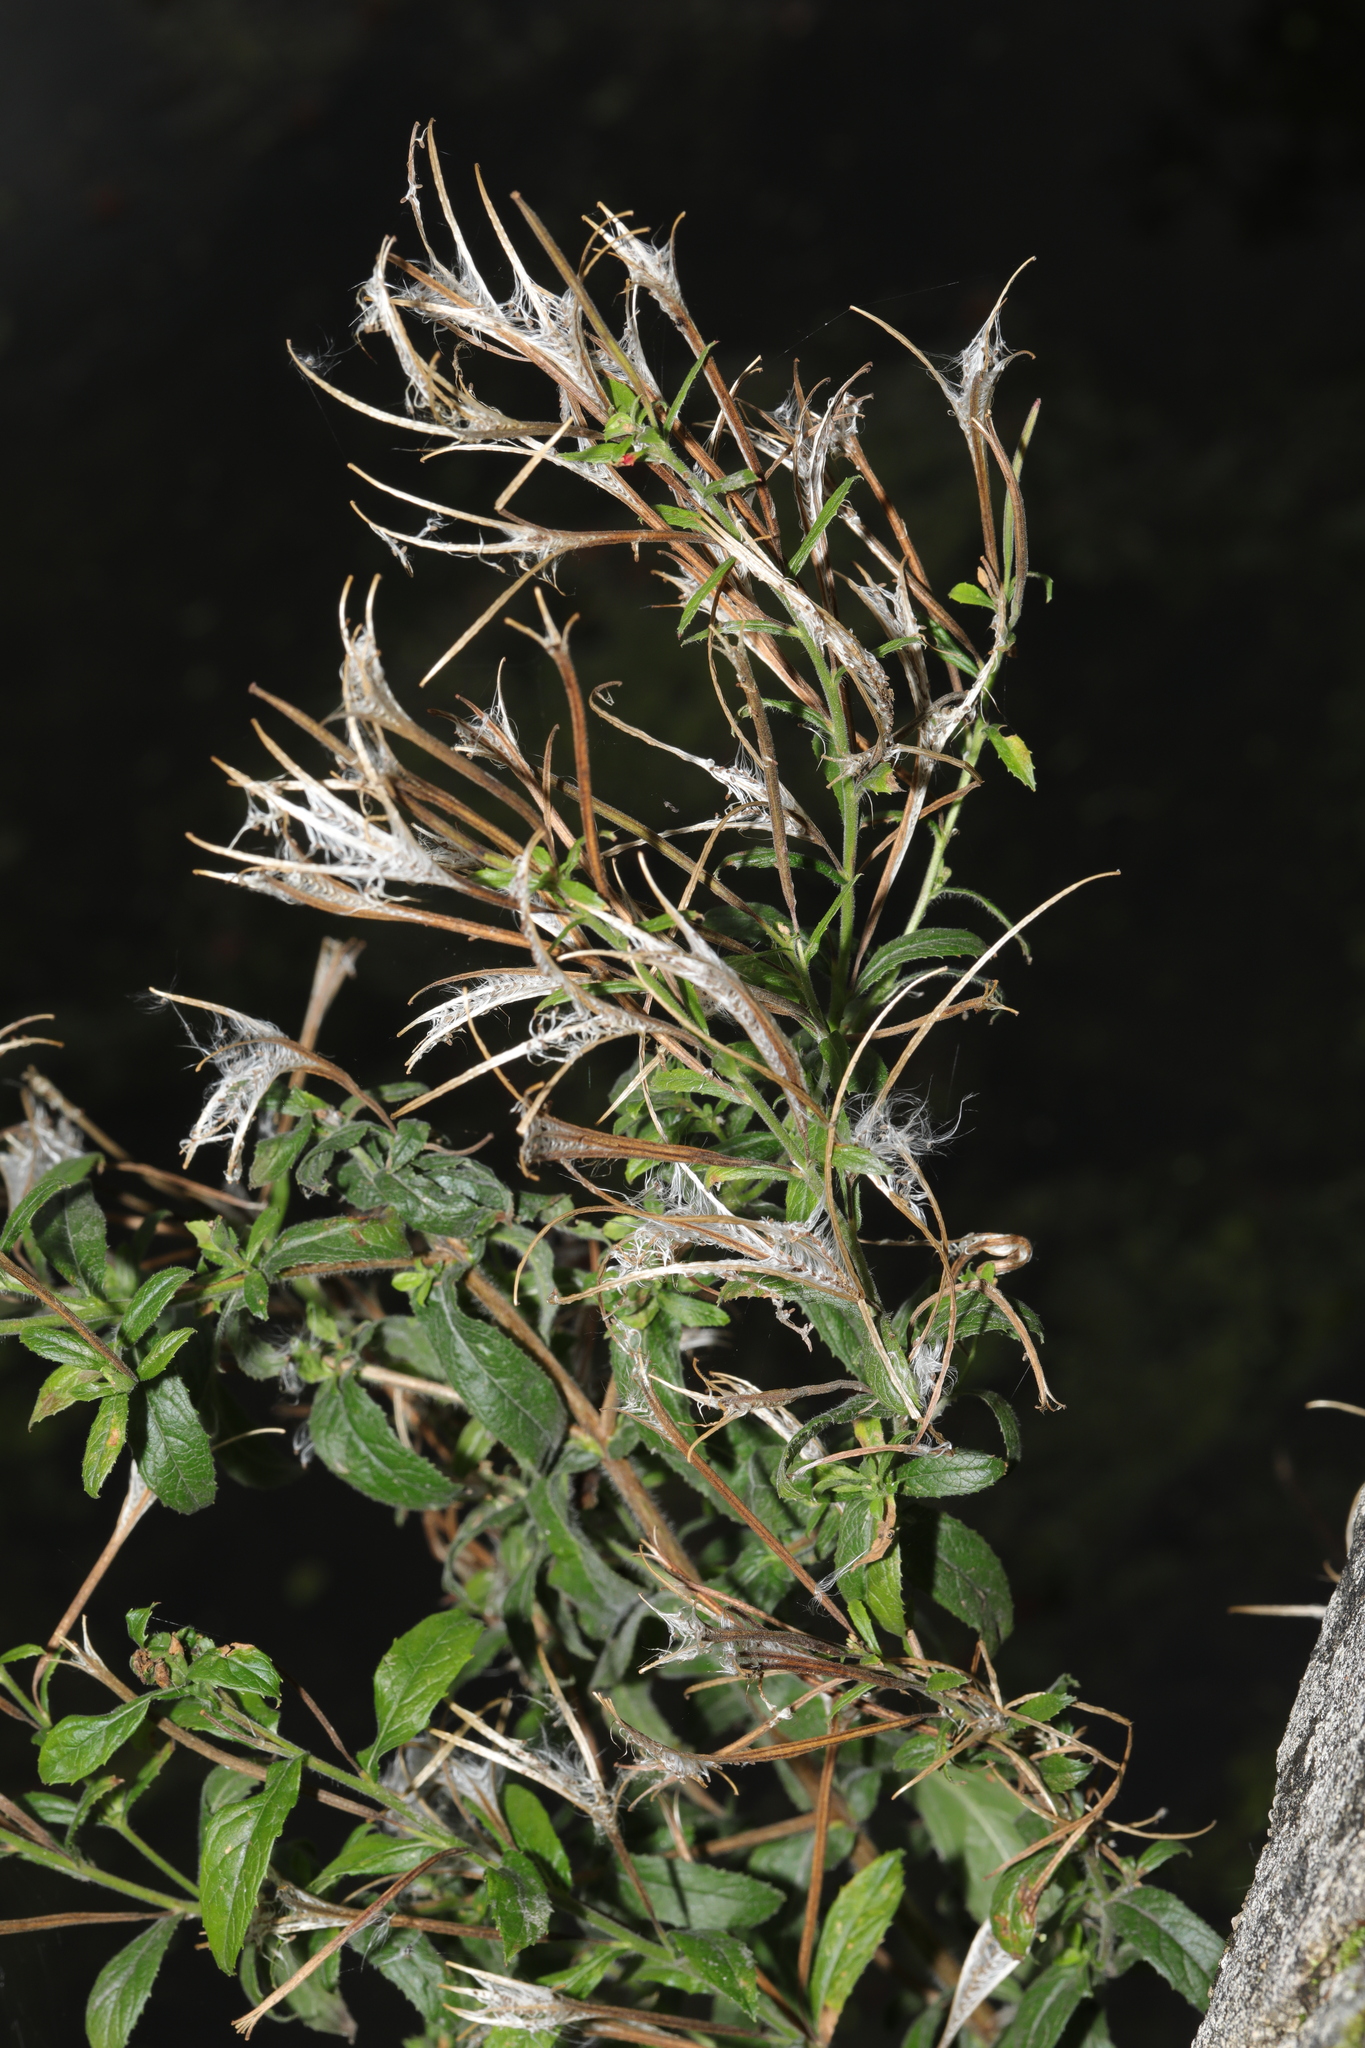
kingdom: Plantae
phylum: Tracheophyta
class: Magnoliopsida
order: Myrtales
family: Onagraceae
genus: Epilobium
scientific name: Epilobium hirsutum
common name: Great willowherb
